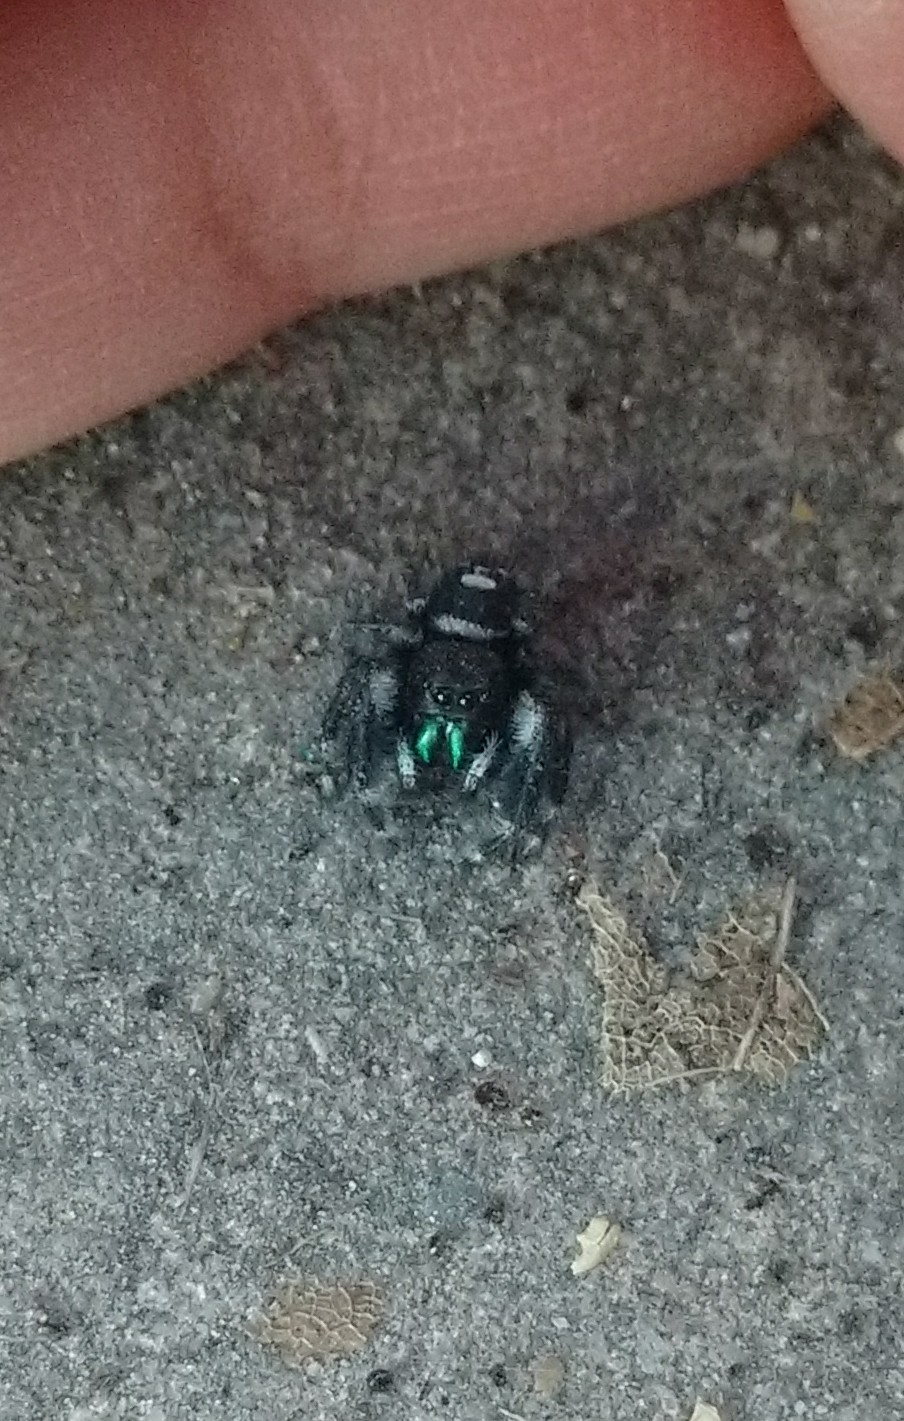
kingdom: Animalia
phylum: Arthropoda
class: Arachnida
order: Araneae
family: Salticidae
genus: Phidippus
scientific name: Phidippus audax
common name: Bold jumper
